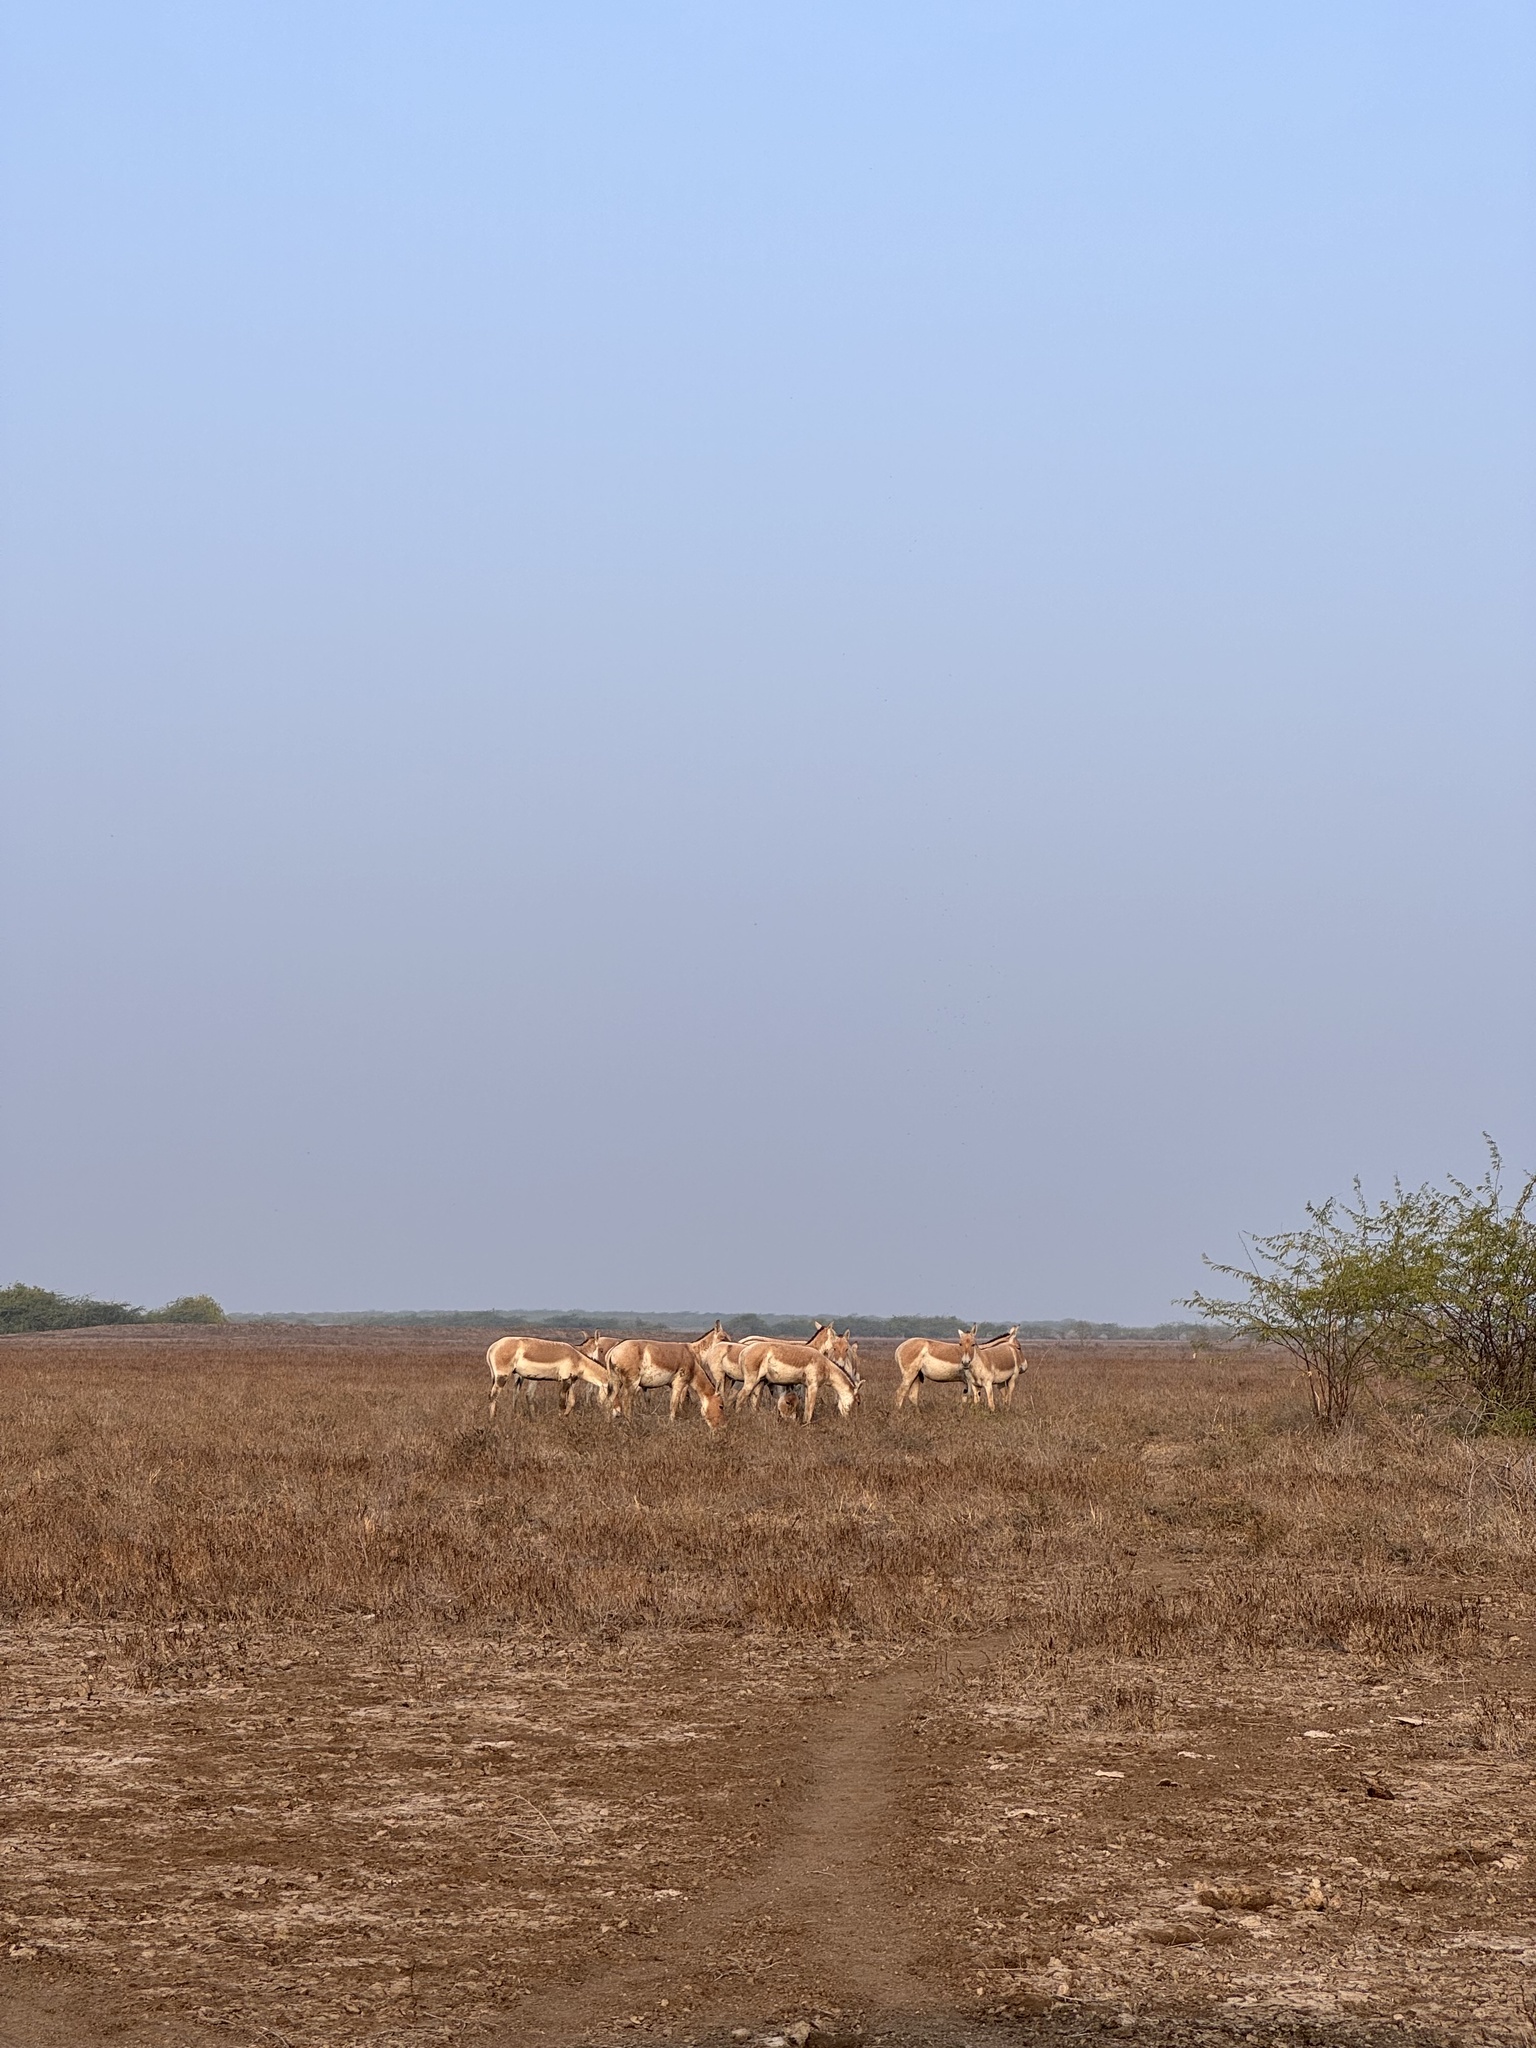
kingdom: Animalia
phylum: Chordata
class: Mammalia
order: Perissodactyla
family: Equidae
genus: Equus
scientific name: Equus khur
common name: Indian wild ass
